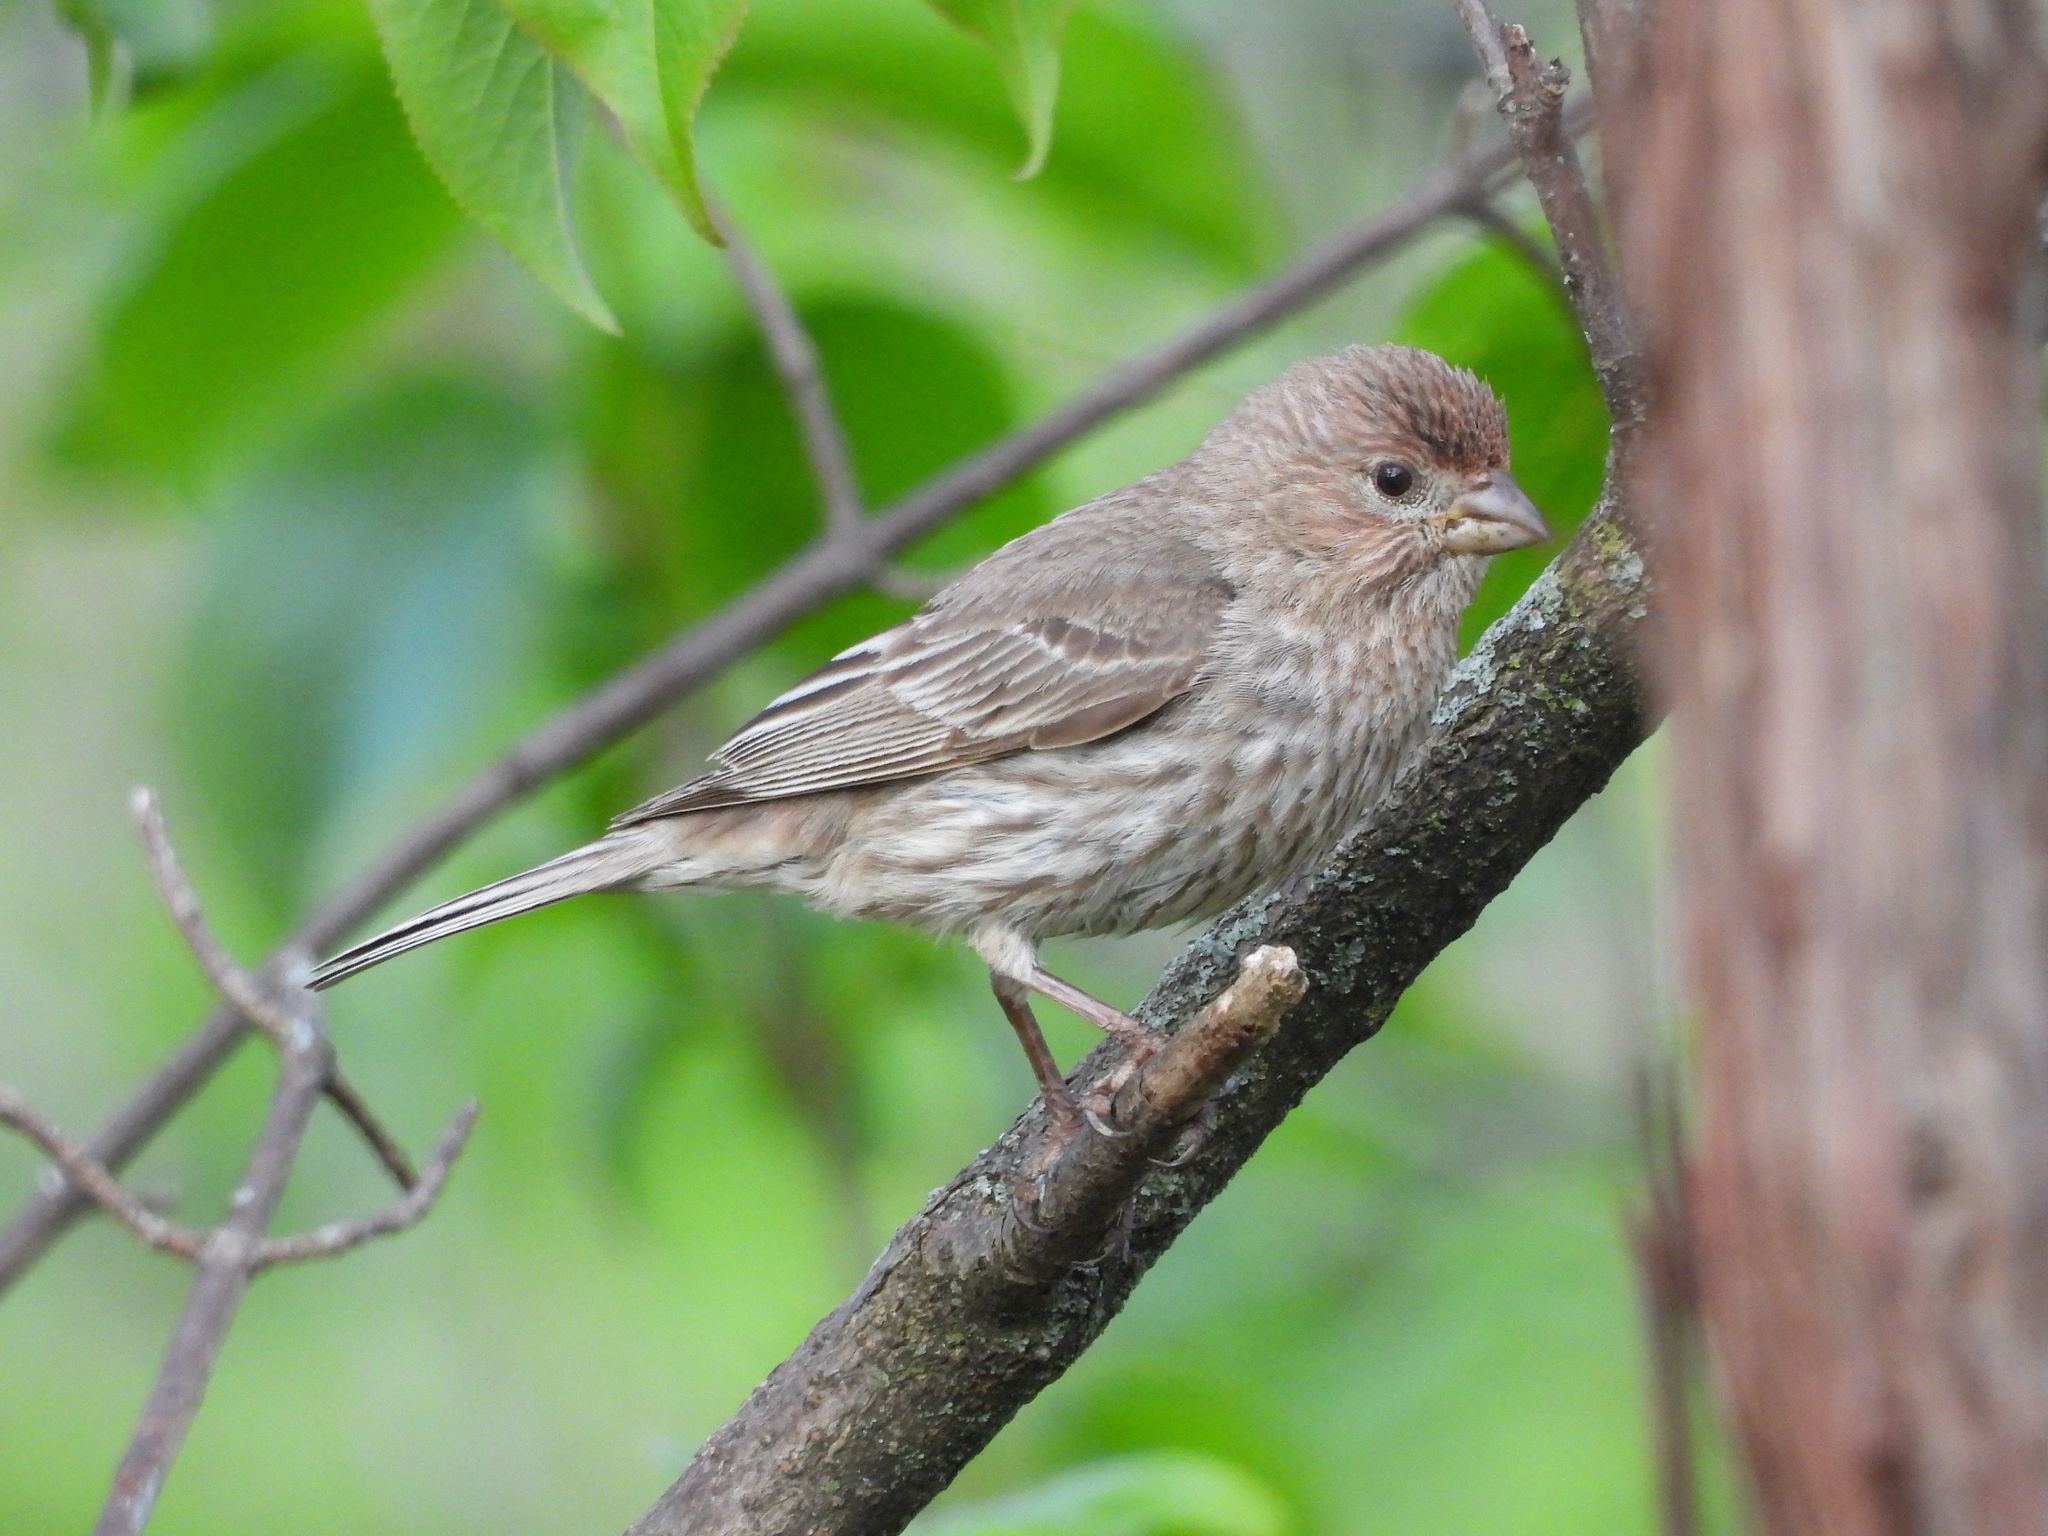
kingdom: Animalia
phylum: Chordata
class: Aves
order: Passeriformes
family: Fringillidae
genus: Haemorhous
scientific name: Haemorhous mexicanus
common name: House finch
